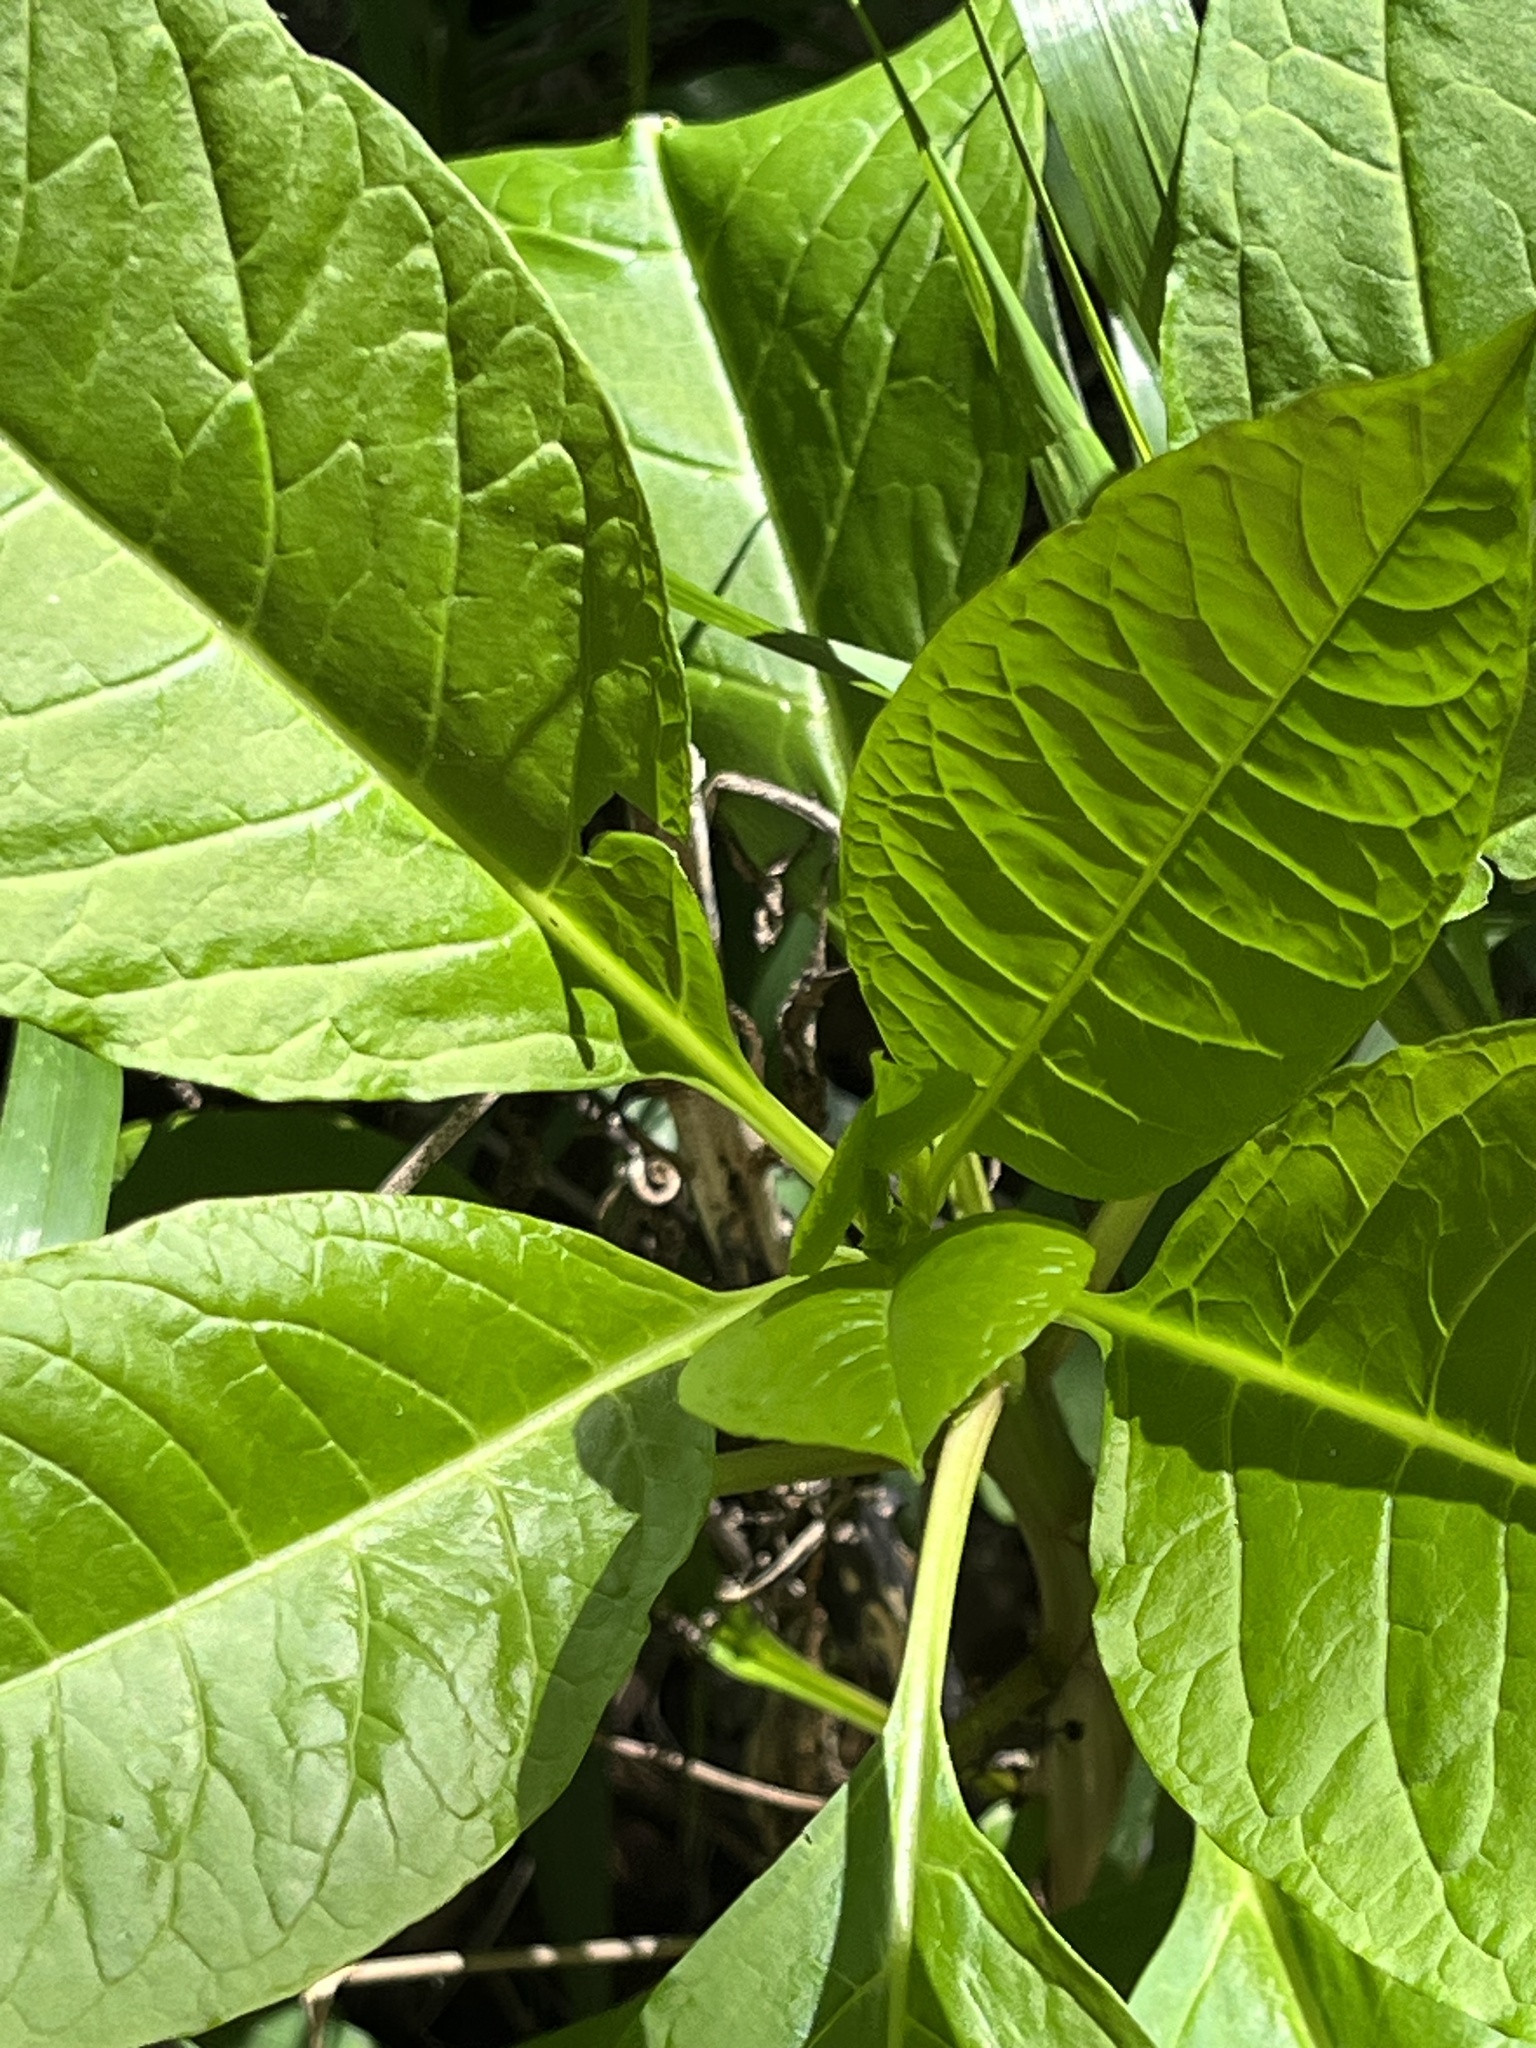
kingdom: Plantae
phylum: Tracheophyta
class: Magnoliopsida
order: Caryophyllales
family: Phytolaccaceae
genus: Phytolacca
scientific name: Phytolacca americana
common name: American pokeweed
